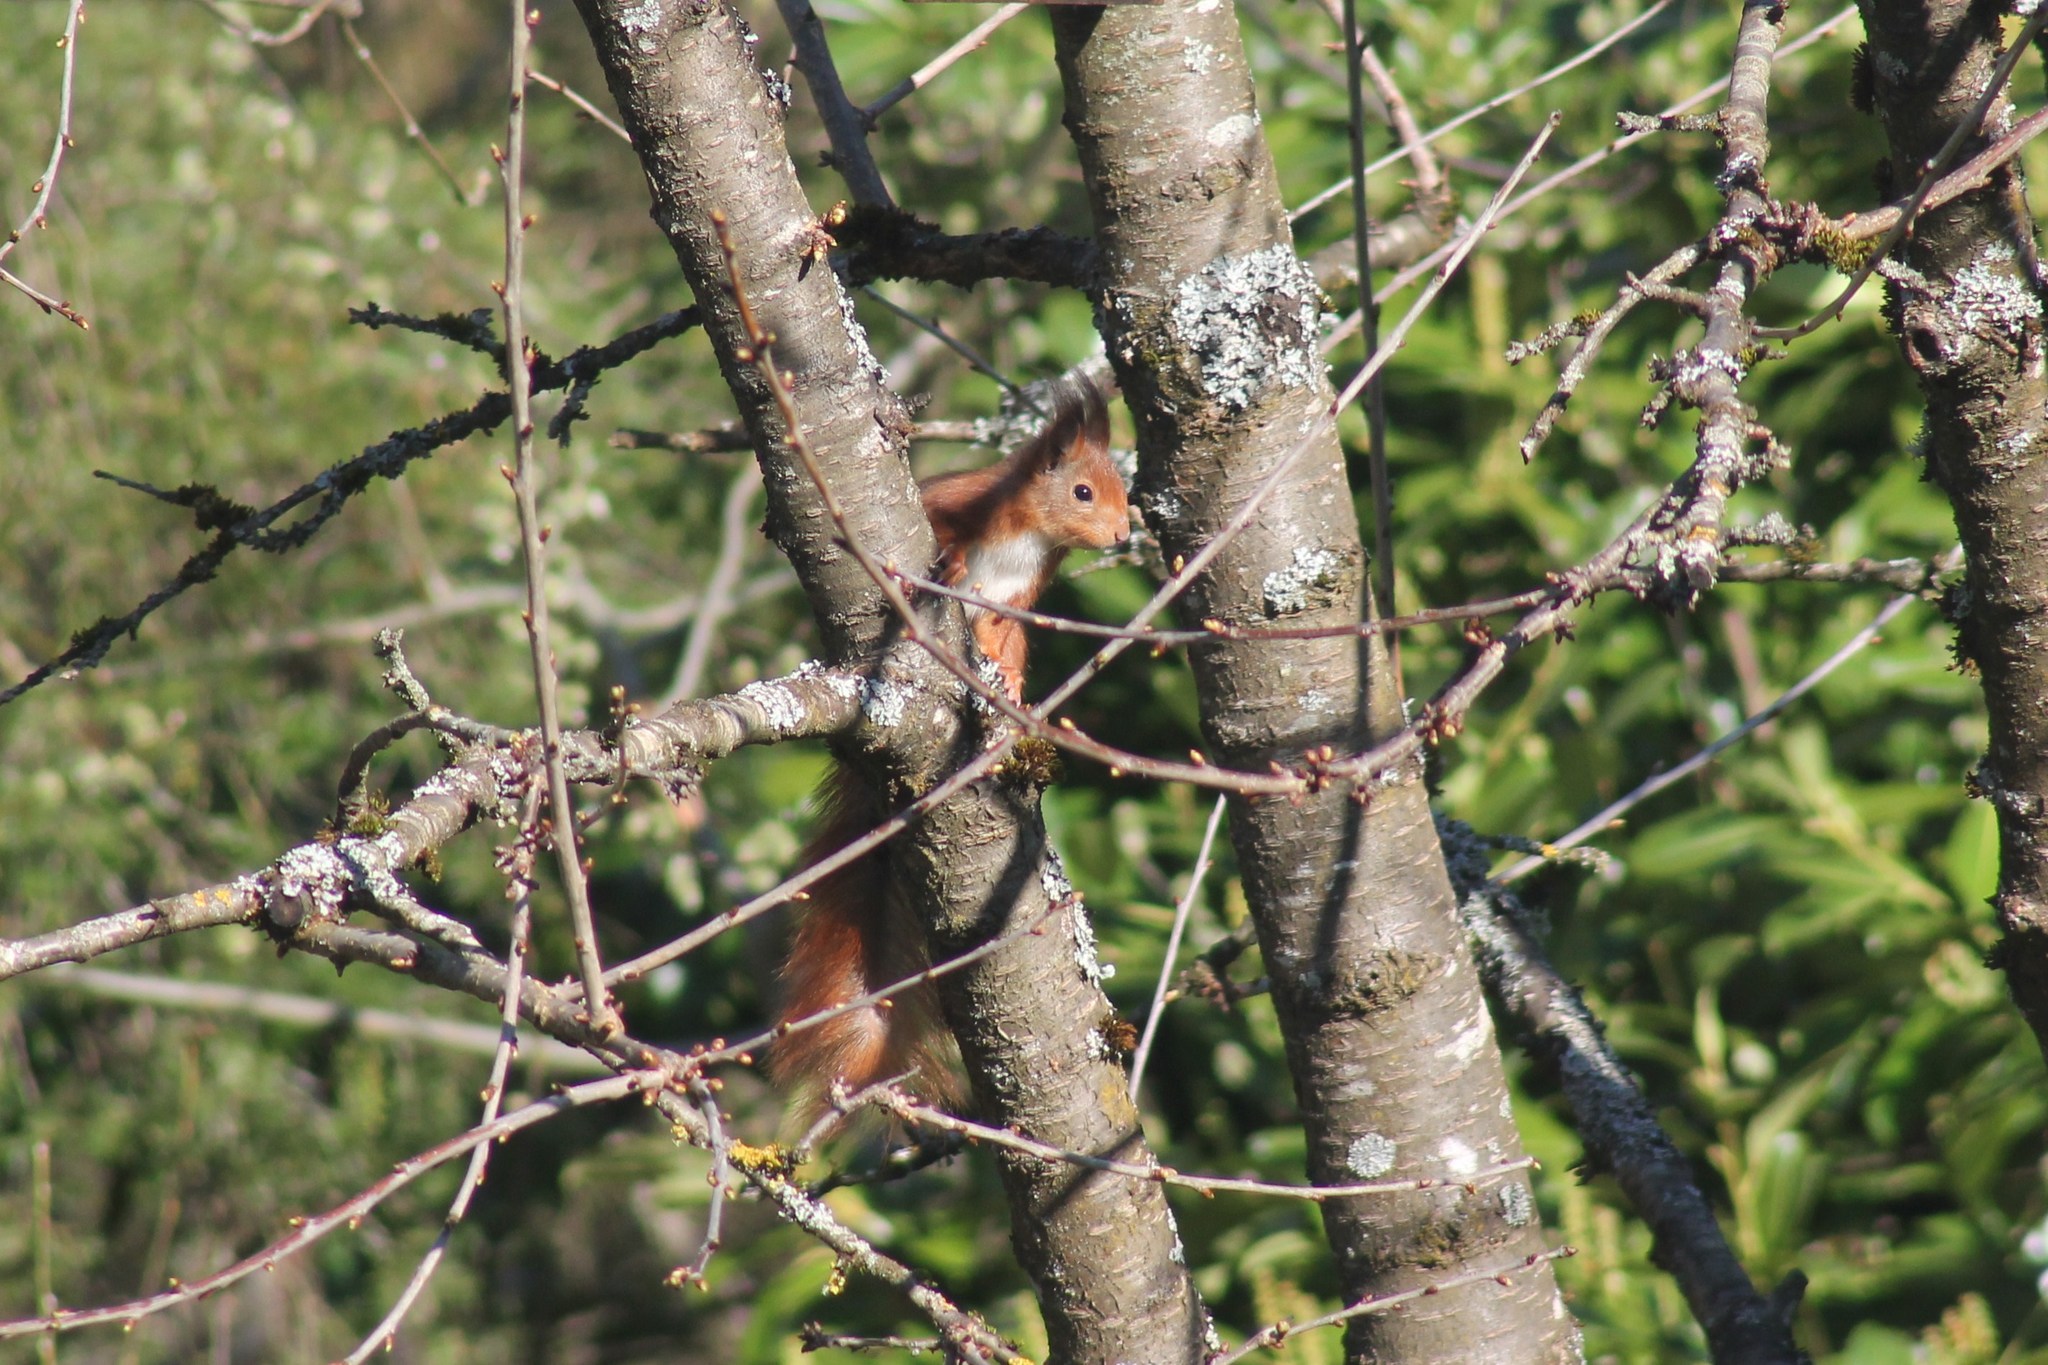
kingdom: Animalia
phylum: Chordata
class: Mammalia
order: Rodentia
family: Sciuridae
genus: Sciurus
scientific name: Sciurus vulgaris
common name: Eurasian red squirrel
